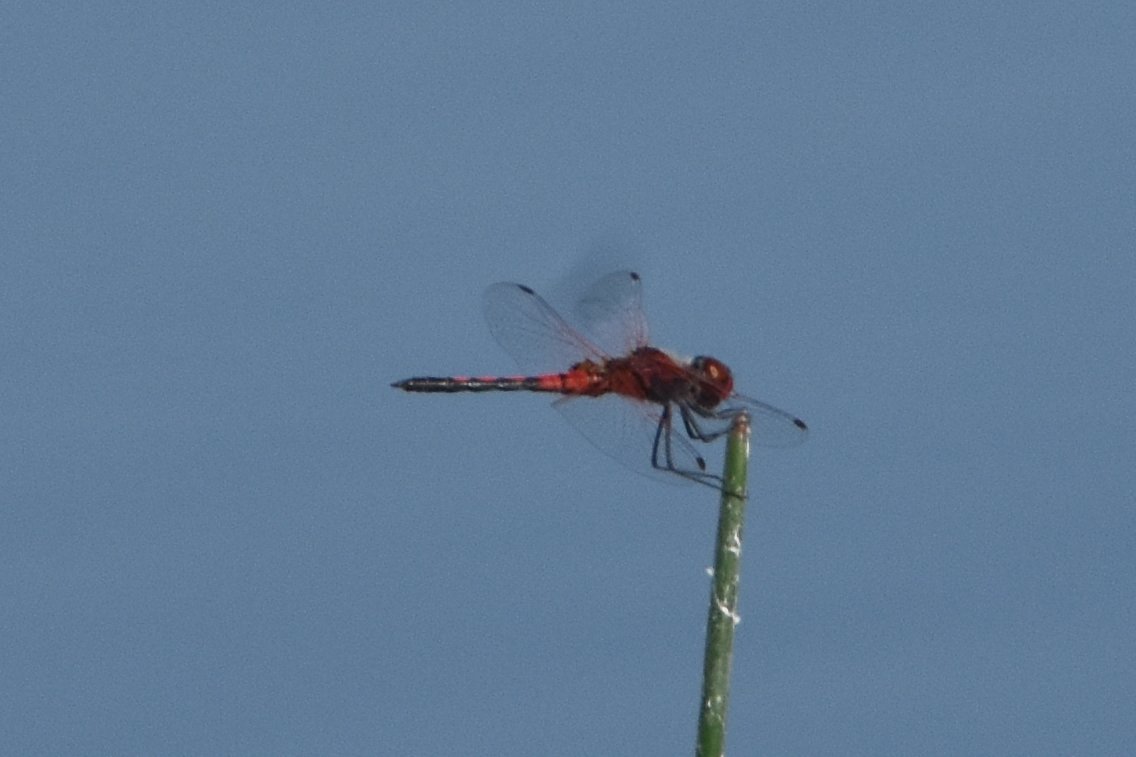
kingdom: Animalia
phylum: Arthropoda
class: Insecta
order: Odonata
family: Libellulidae
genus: Celithemis
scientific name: Celithemis bertha
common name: Red-veined pennant
